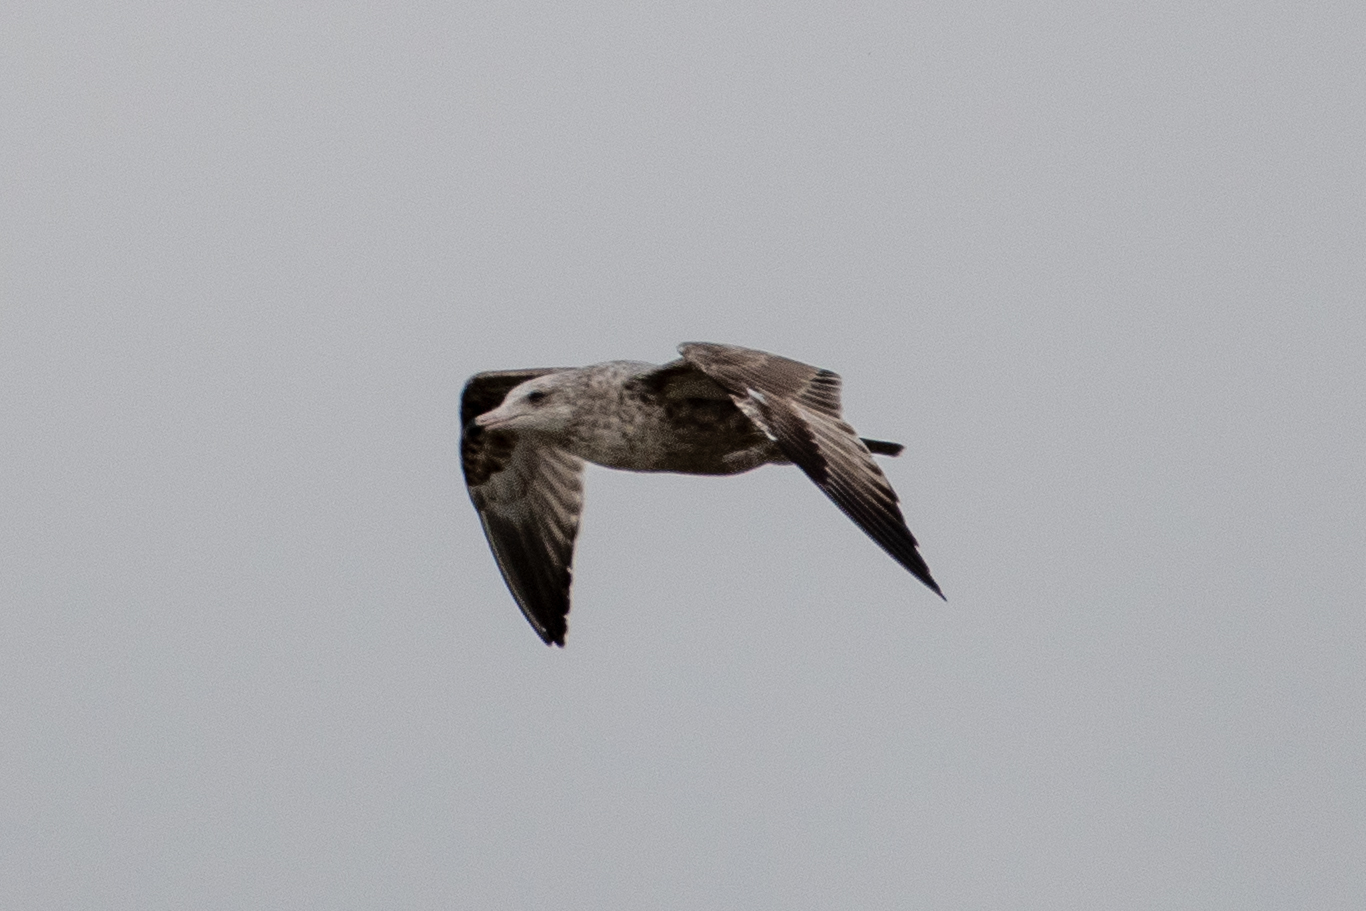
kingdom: Animalia
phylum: Chordata
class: Aves
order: Charadriiformes
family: Laridae
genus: Larus
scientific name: Larus argentatus
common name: Herring gull
